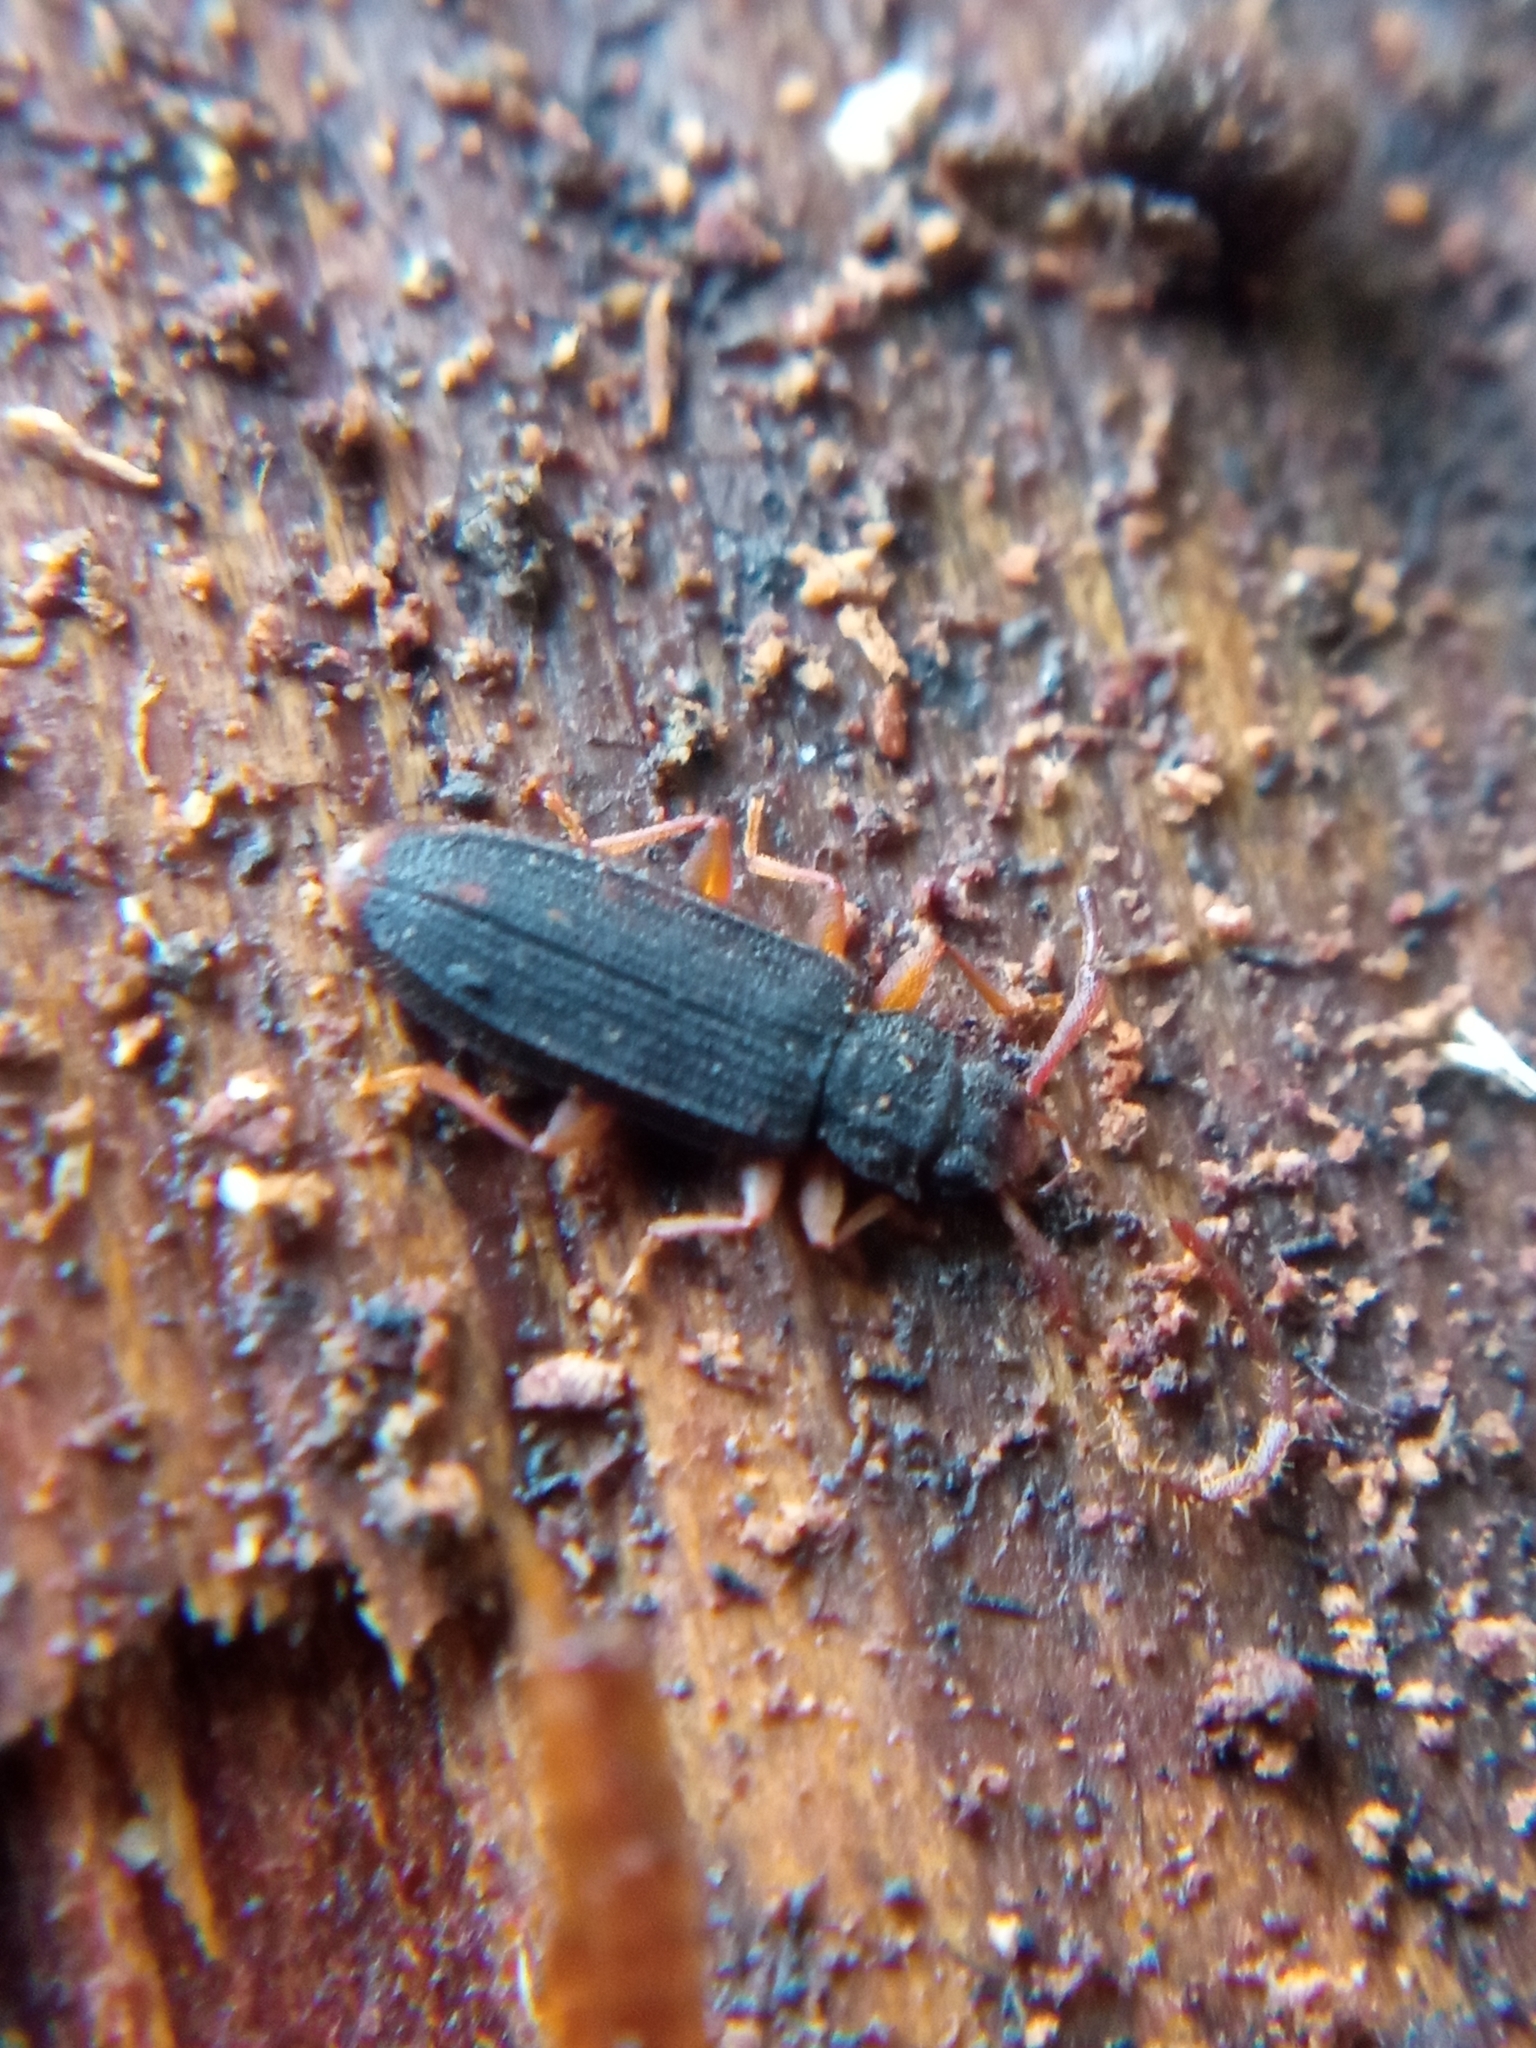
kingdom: Animalia
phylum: Arthropoda
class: Insecta
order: Coleoptera
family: Silvanidae
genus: Uleiota
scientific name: Uleiota planatus
